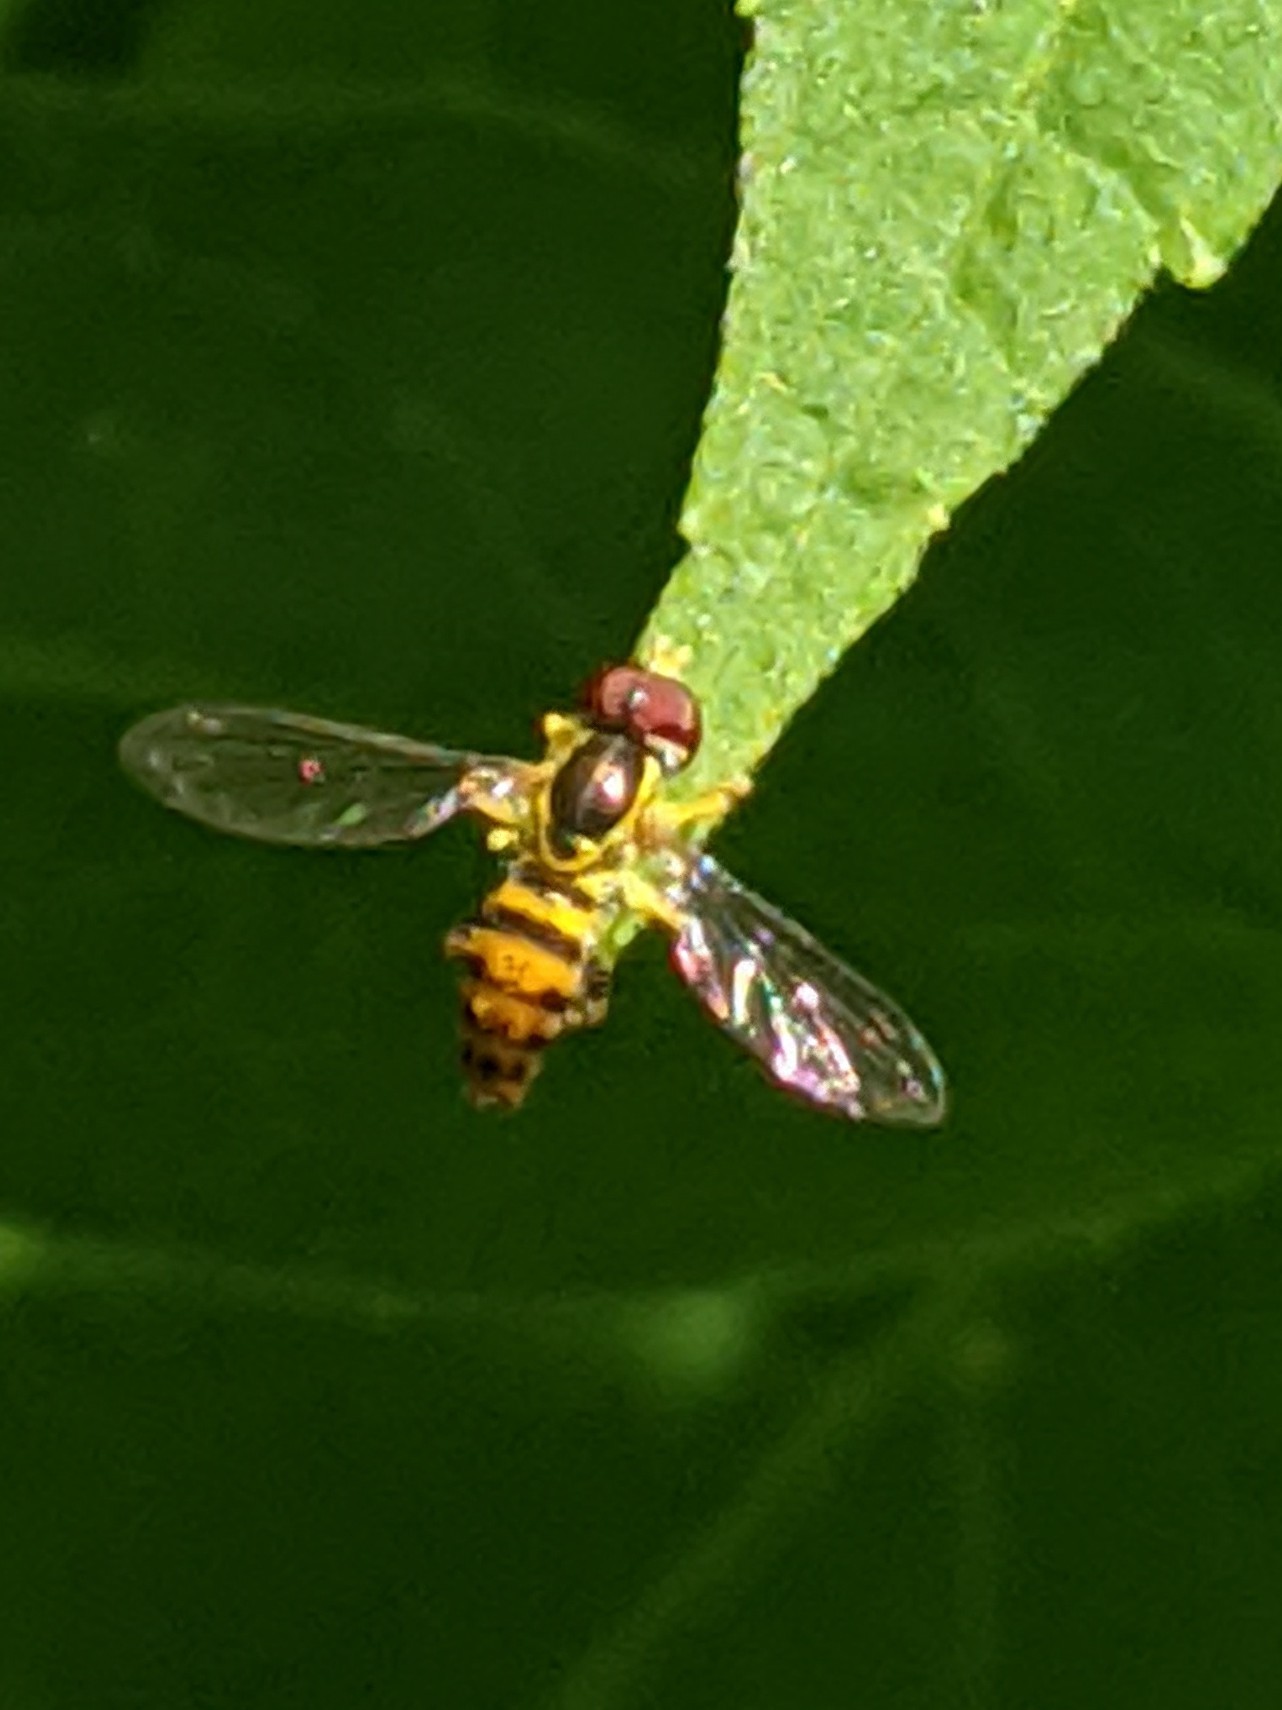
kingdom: Animalia
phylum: Arthropoda
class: Insecta
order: Diptera
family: Syrphidae
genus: Toxomerus
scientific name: Toxomerus geminatus
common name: Eastern calligrapher
